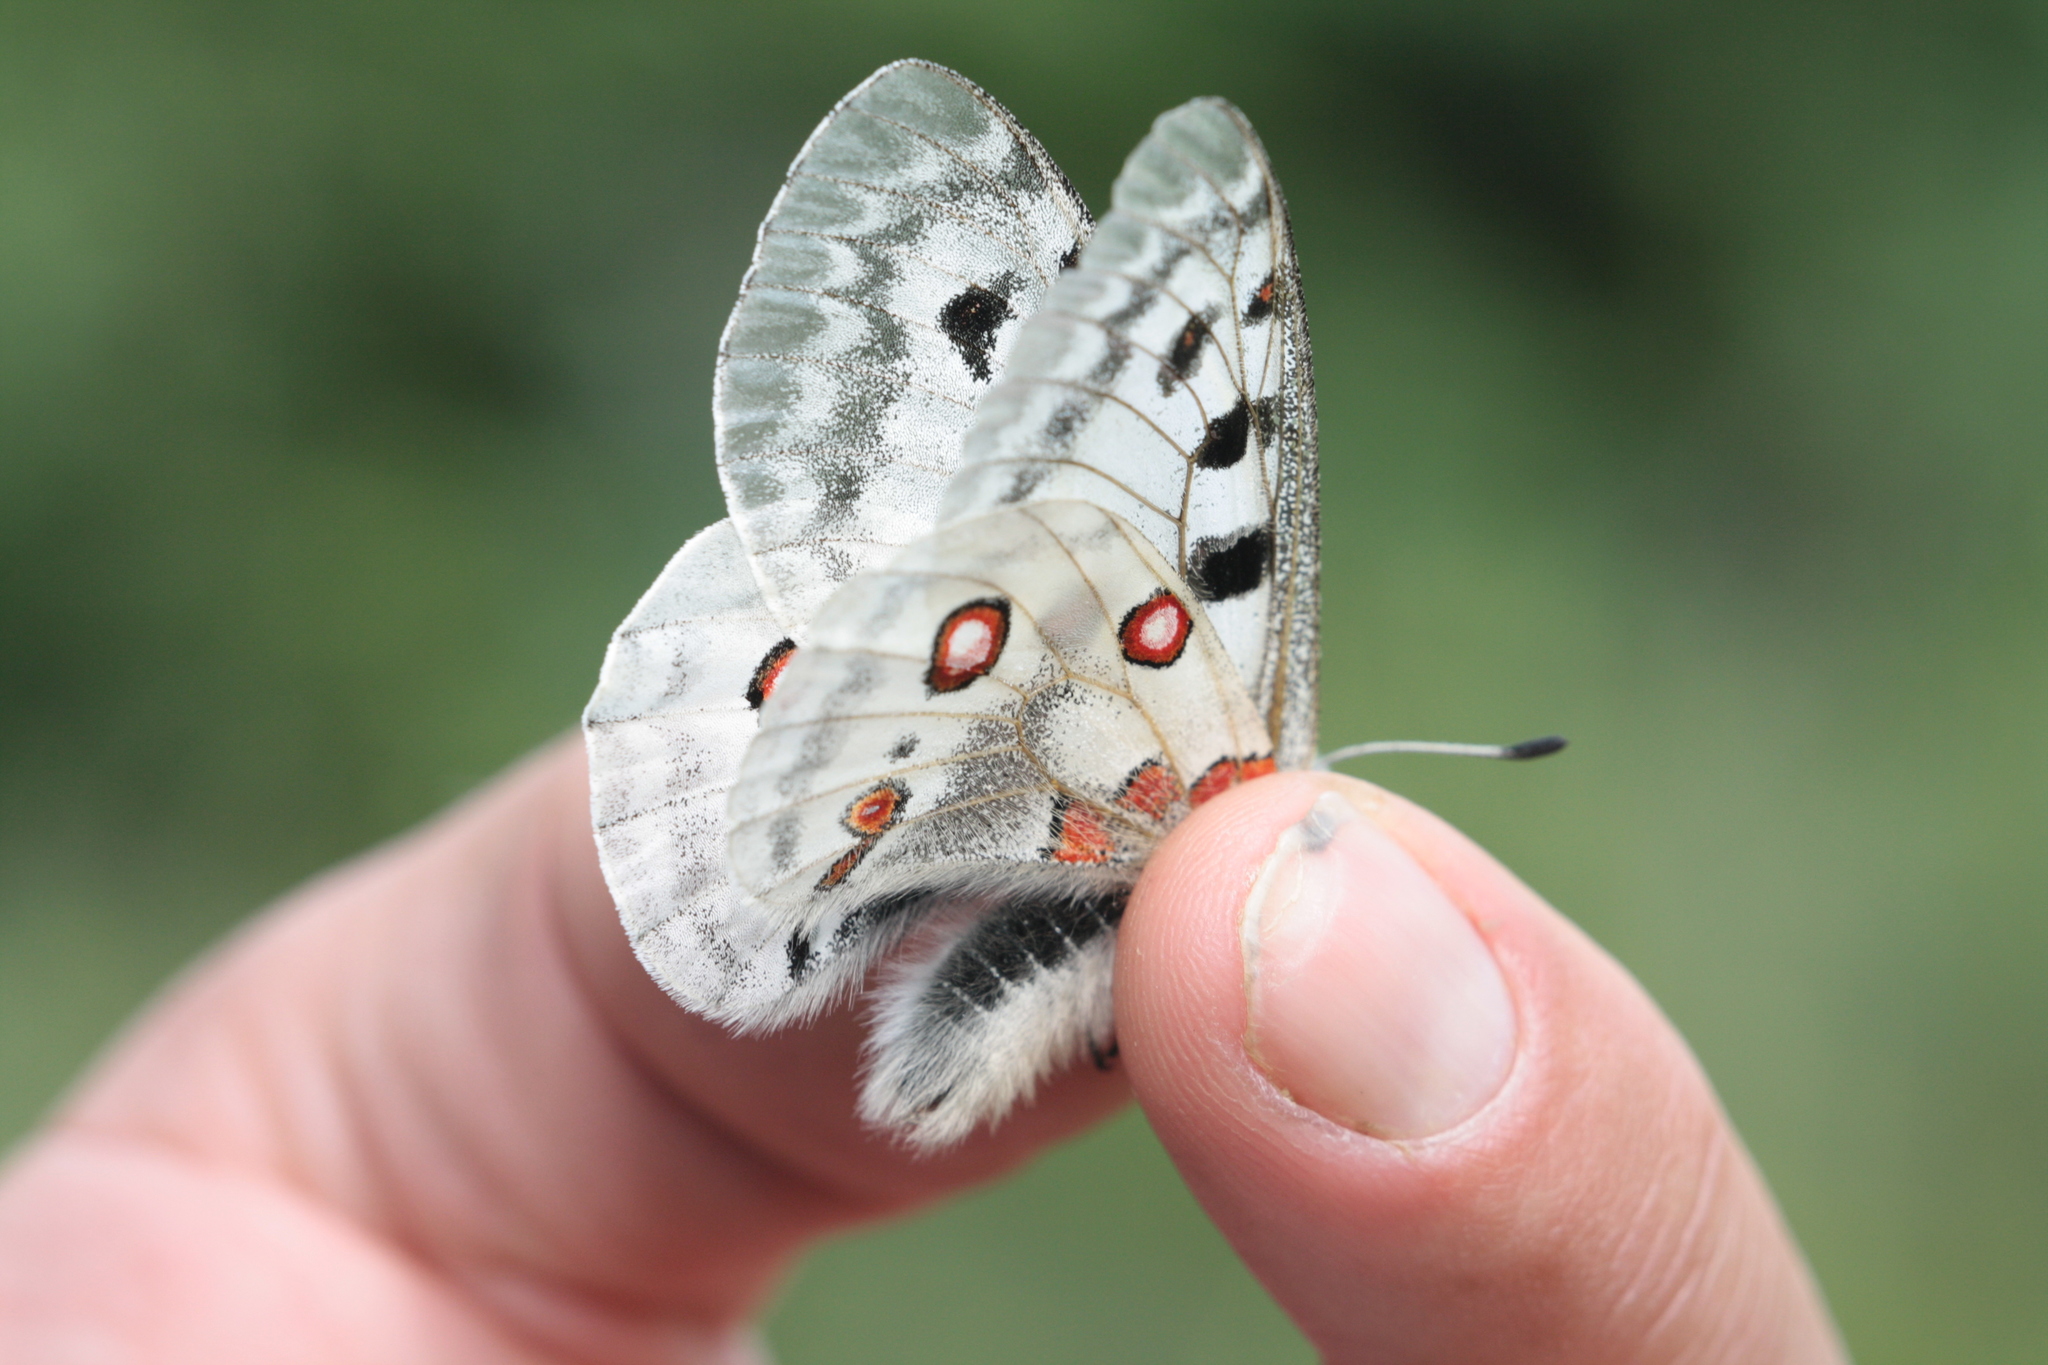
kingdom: Animalia
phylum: Arthropoda
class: Insecta
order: Lepidoptera
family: Papilionidae
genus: Parnassius
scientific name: Parnassius apollo
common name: Apollo
